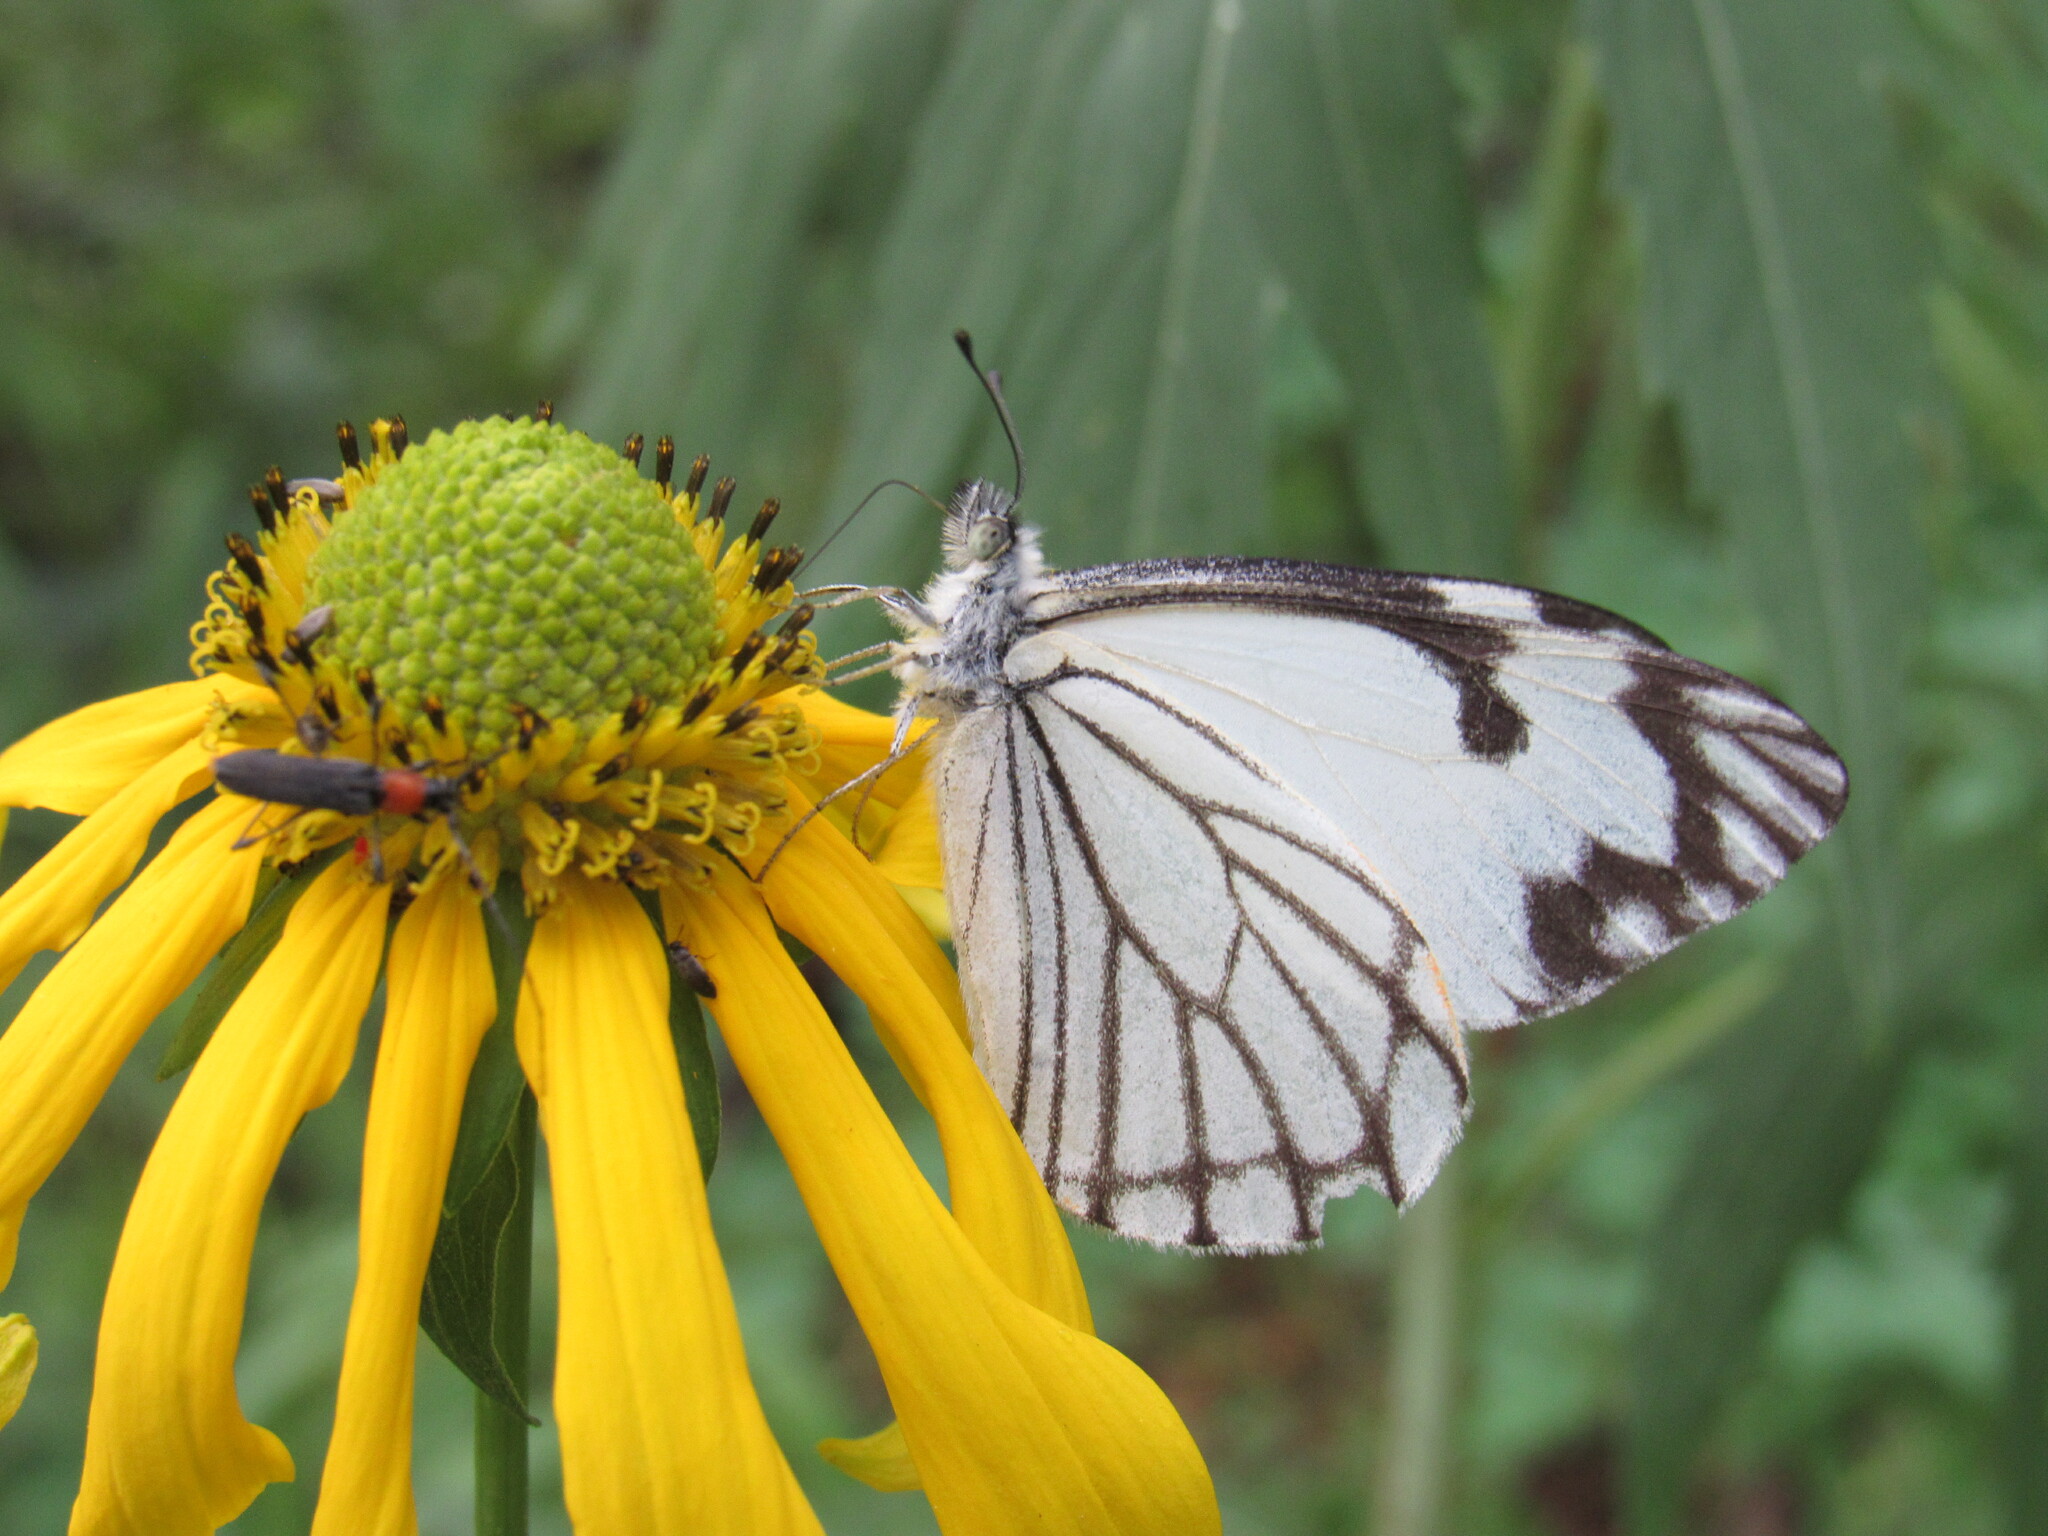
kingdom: Animalia
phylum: Arthropoda
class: Insecta
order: Lepidoptera
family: Pieridae
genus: Neophasia
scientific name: Neophasia menapia
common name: Pine white
